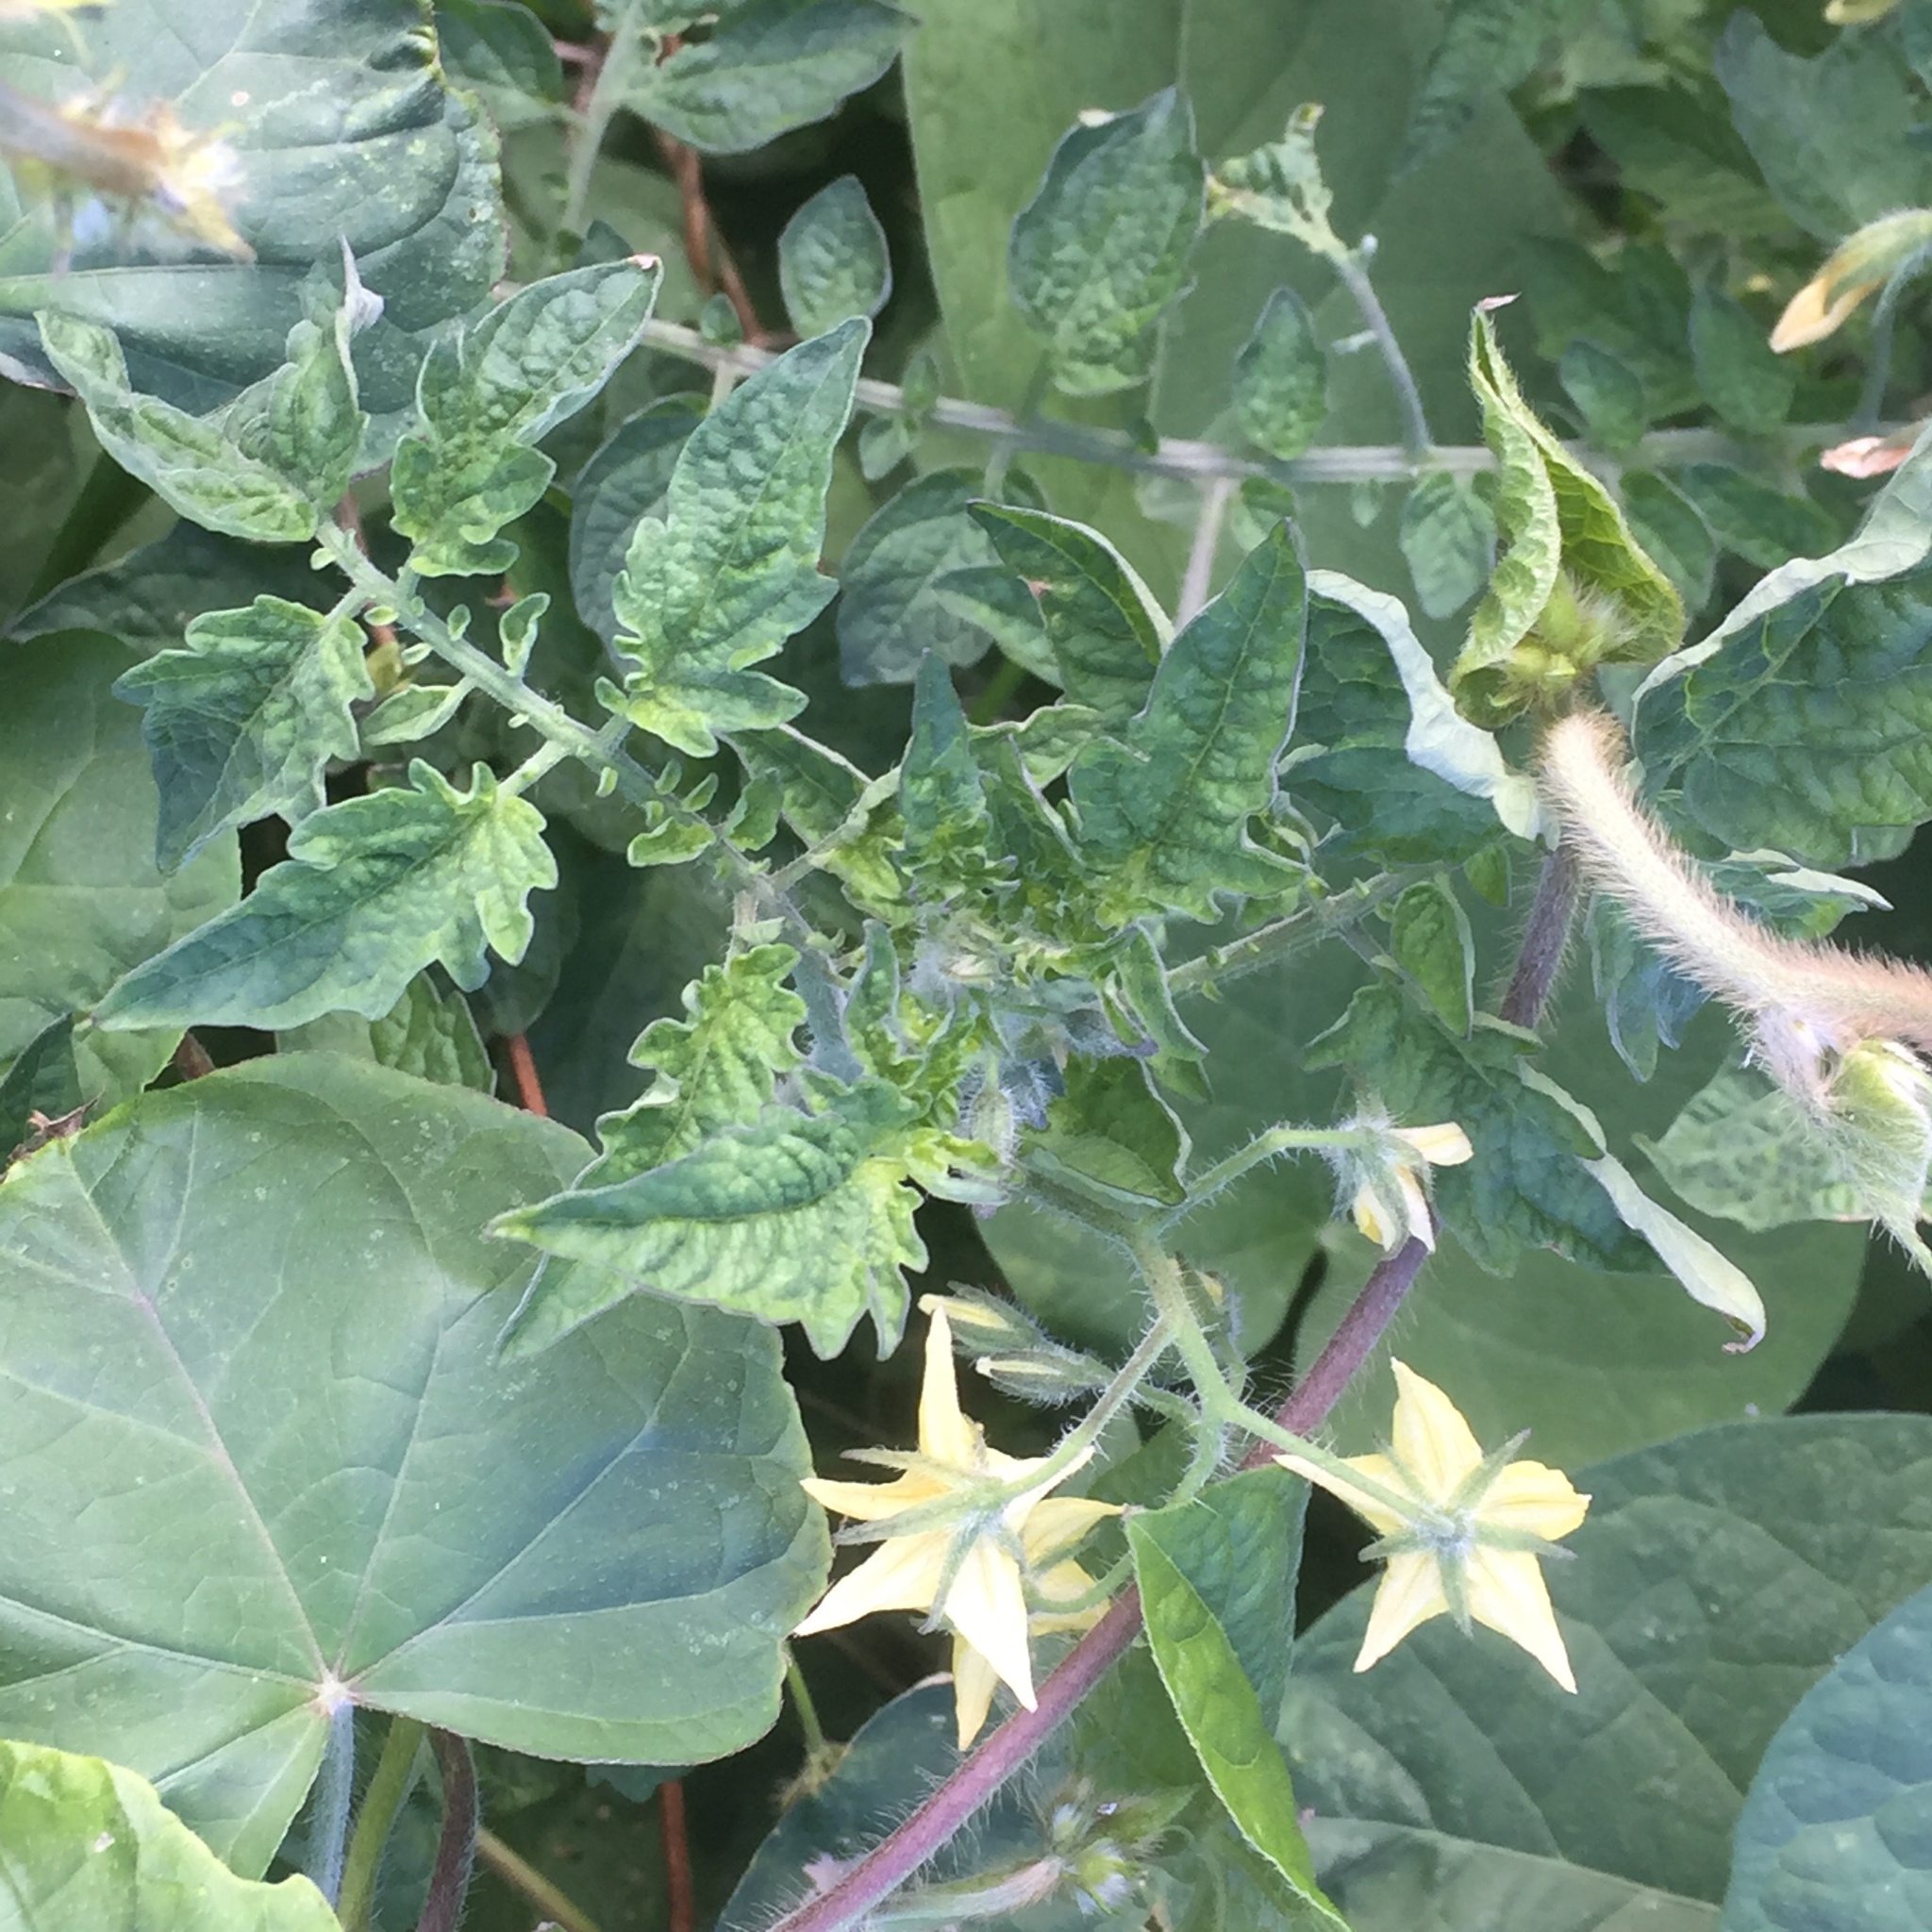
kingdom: Plantae
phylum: Tracheophyta
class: Magnoliopsida
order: Solanales
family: Solanaceae
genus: Solanum
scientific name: Solanum lycopersicum
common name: Garden tomato
